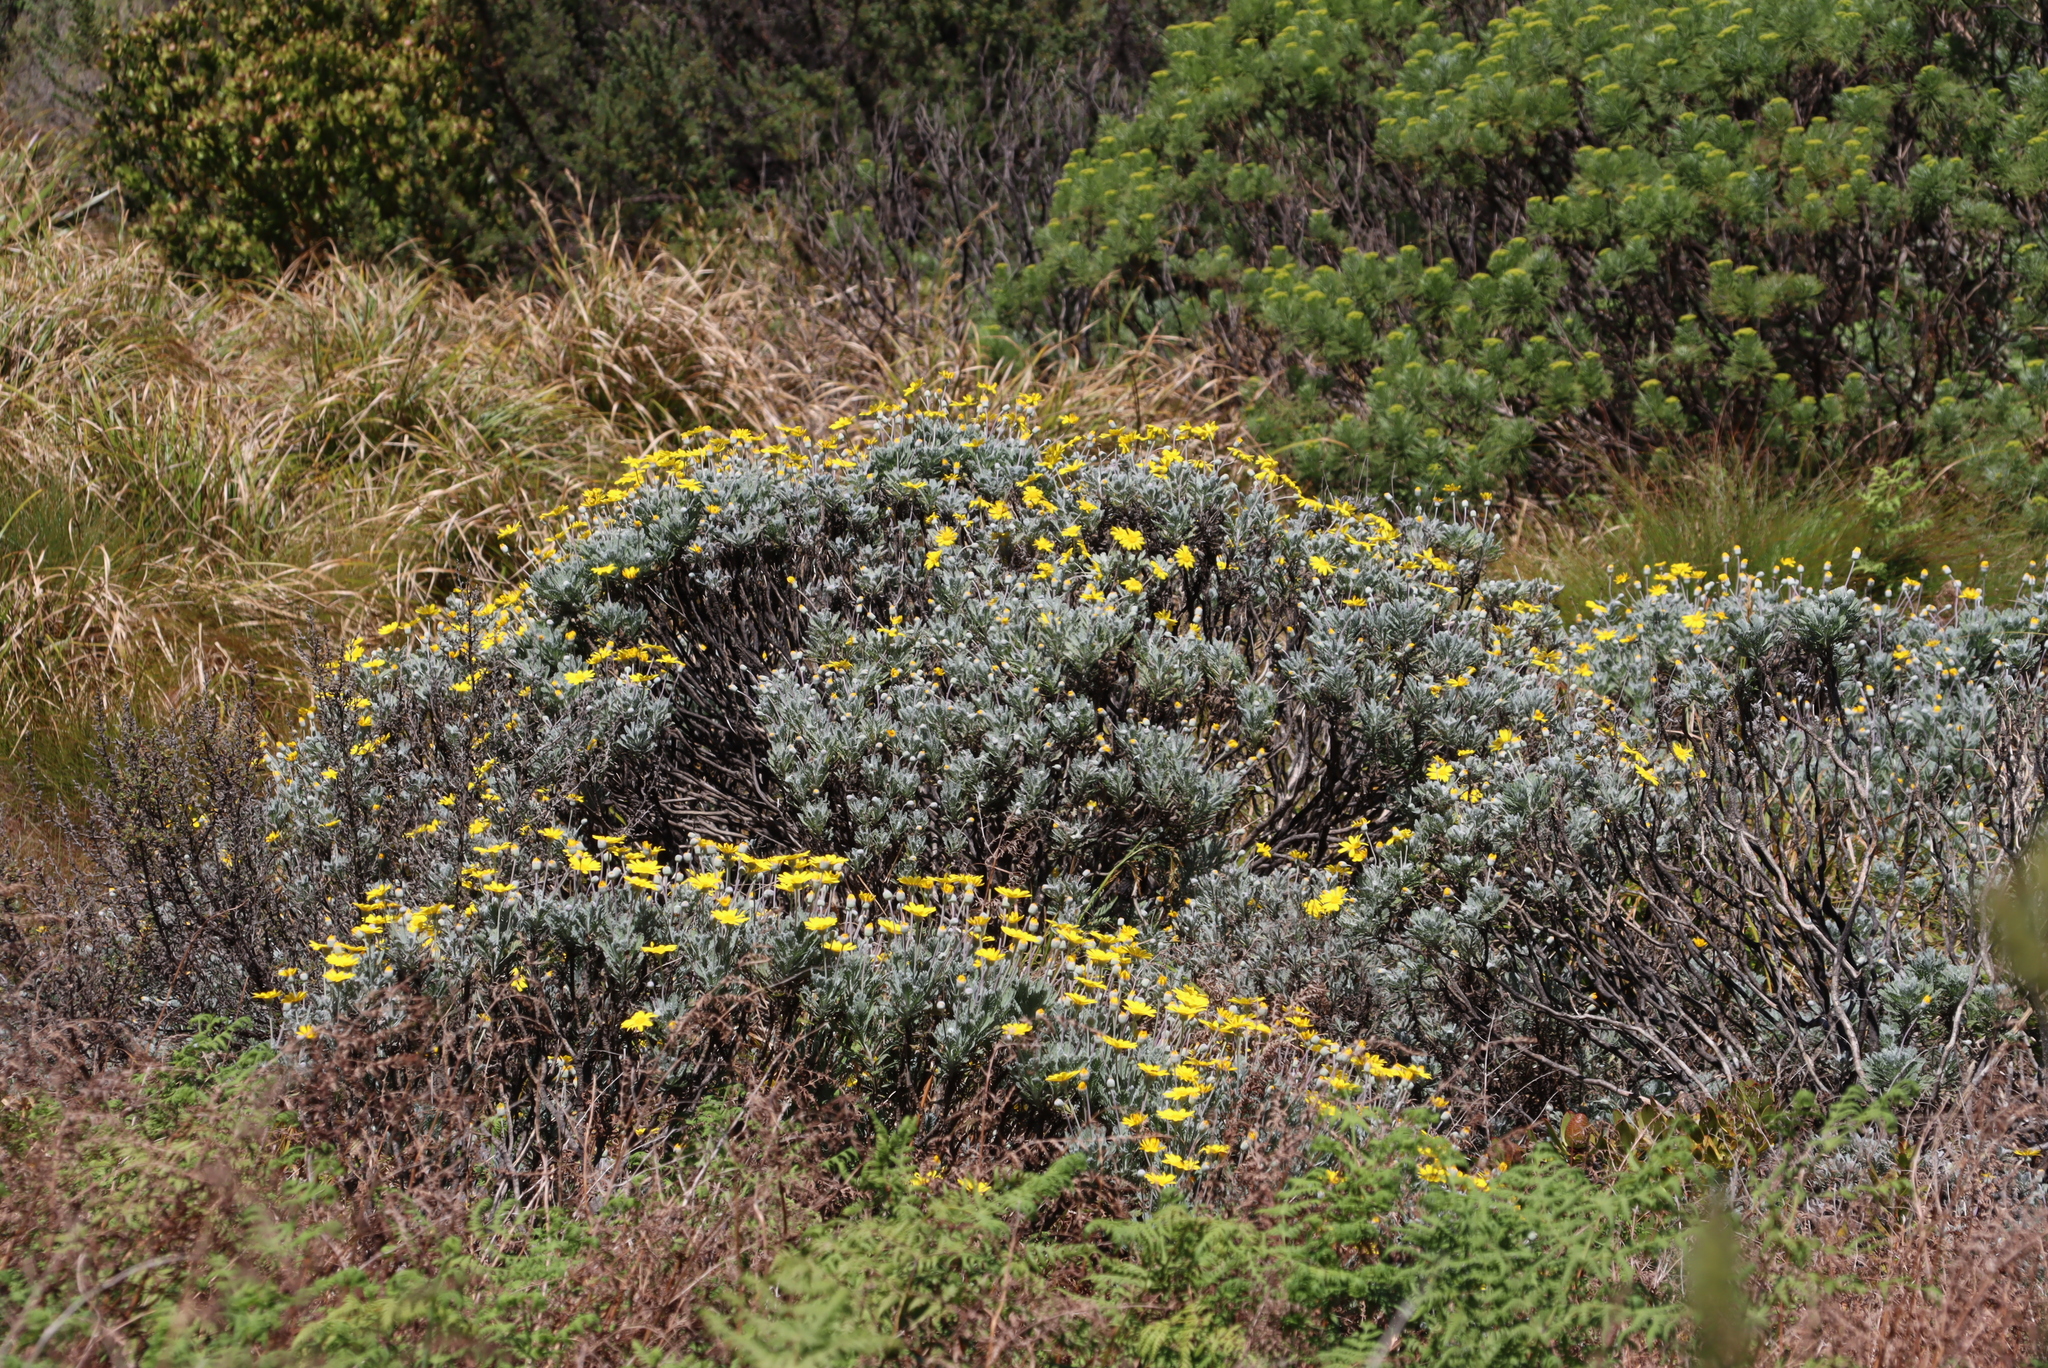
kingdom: Plantae
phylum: Tracheophyta
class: Magnoliopsida
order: Asterales
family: Asteraceae
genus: Euryops
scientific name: Euryops pectinatus
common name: Gray-leaf euryops
